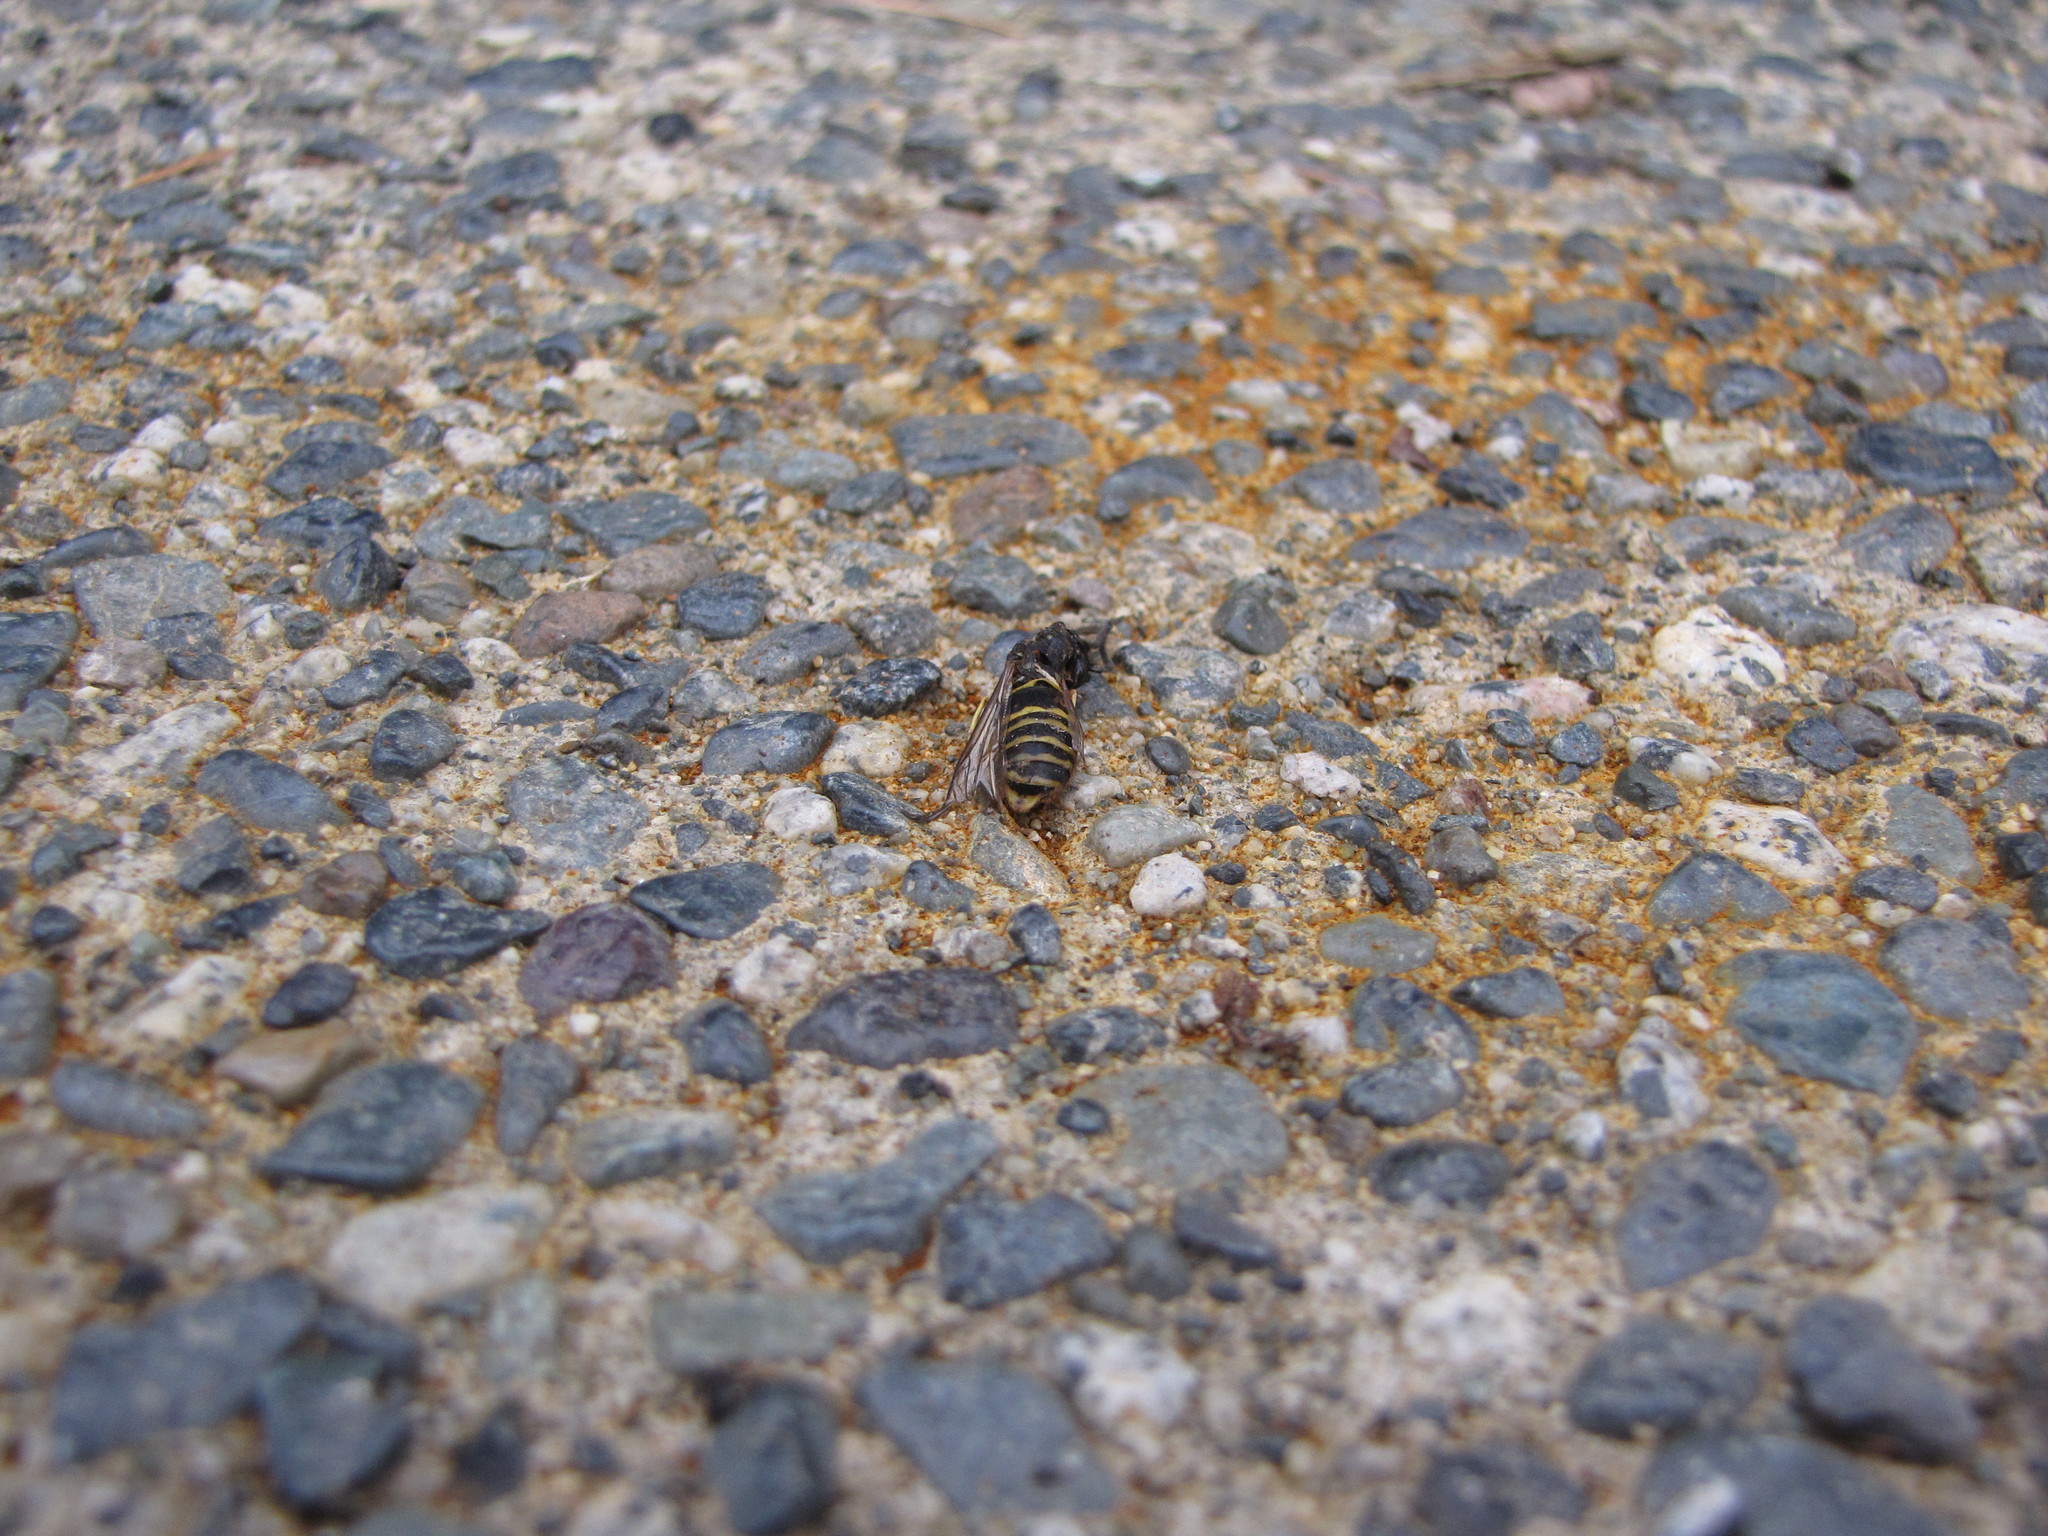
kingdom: Animalia
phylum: Arthropoda
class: Insecta
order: Hymenoptera
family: Vespidae
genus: Vespula
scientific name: Vespula
